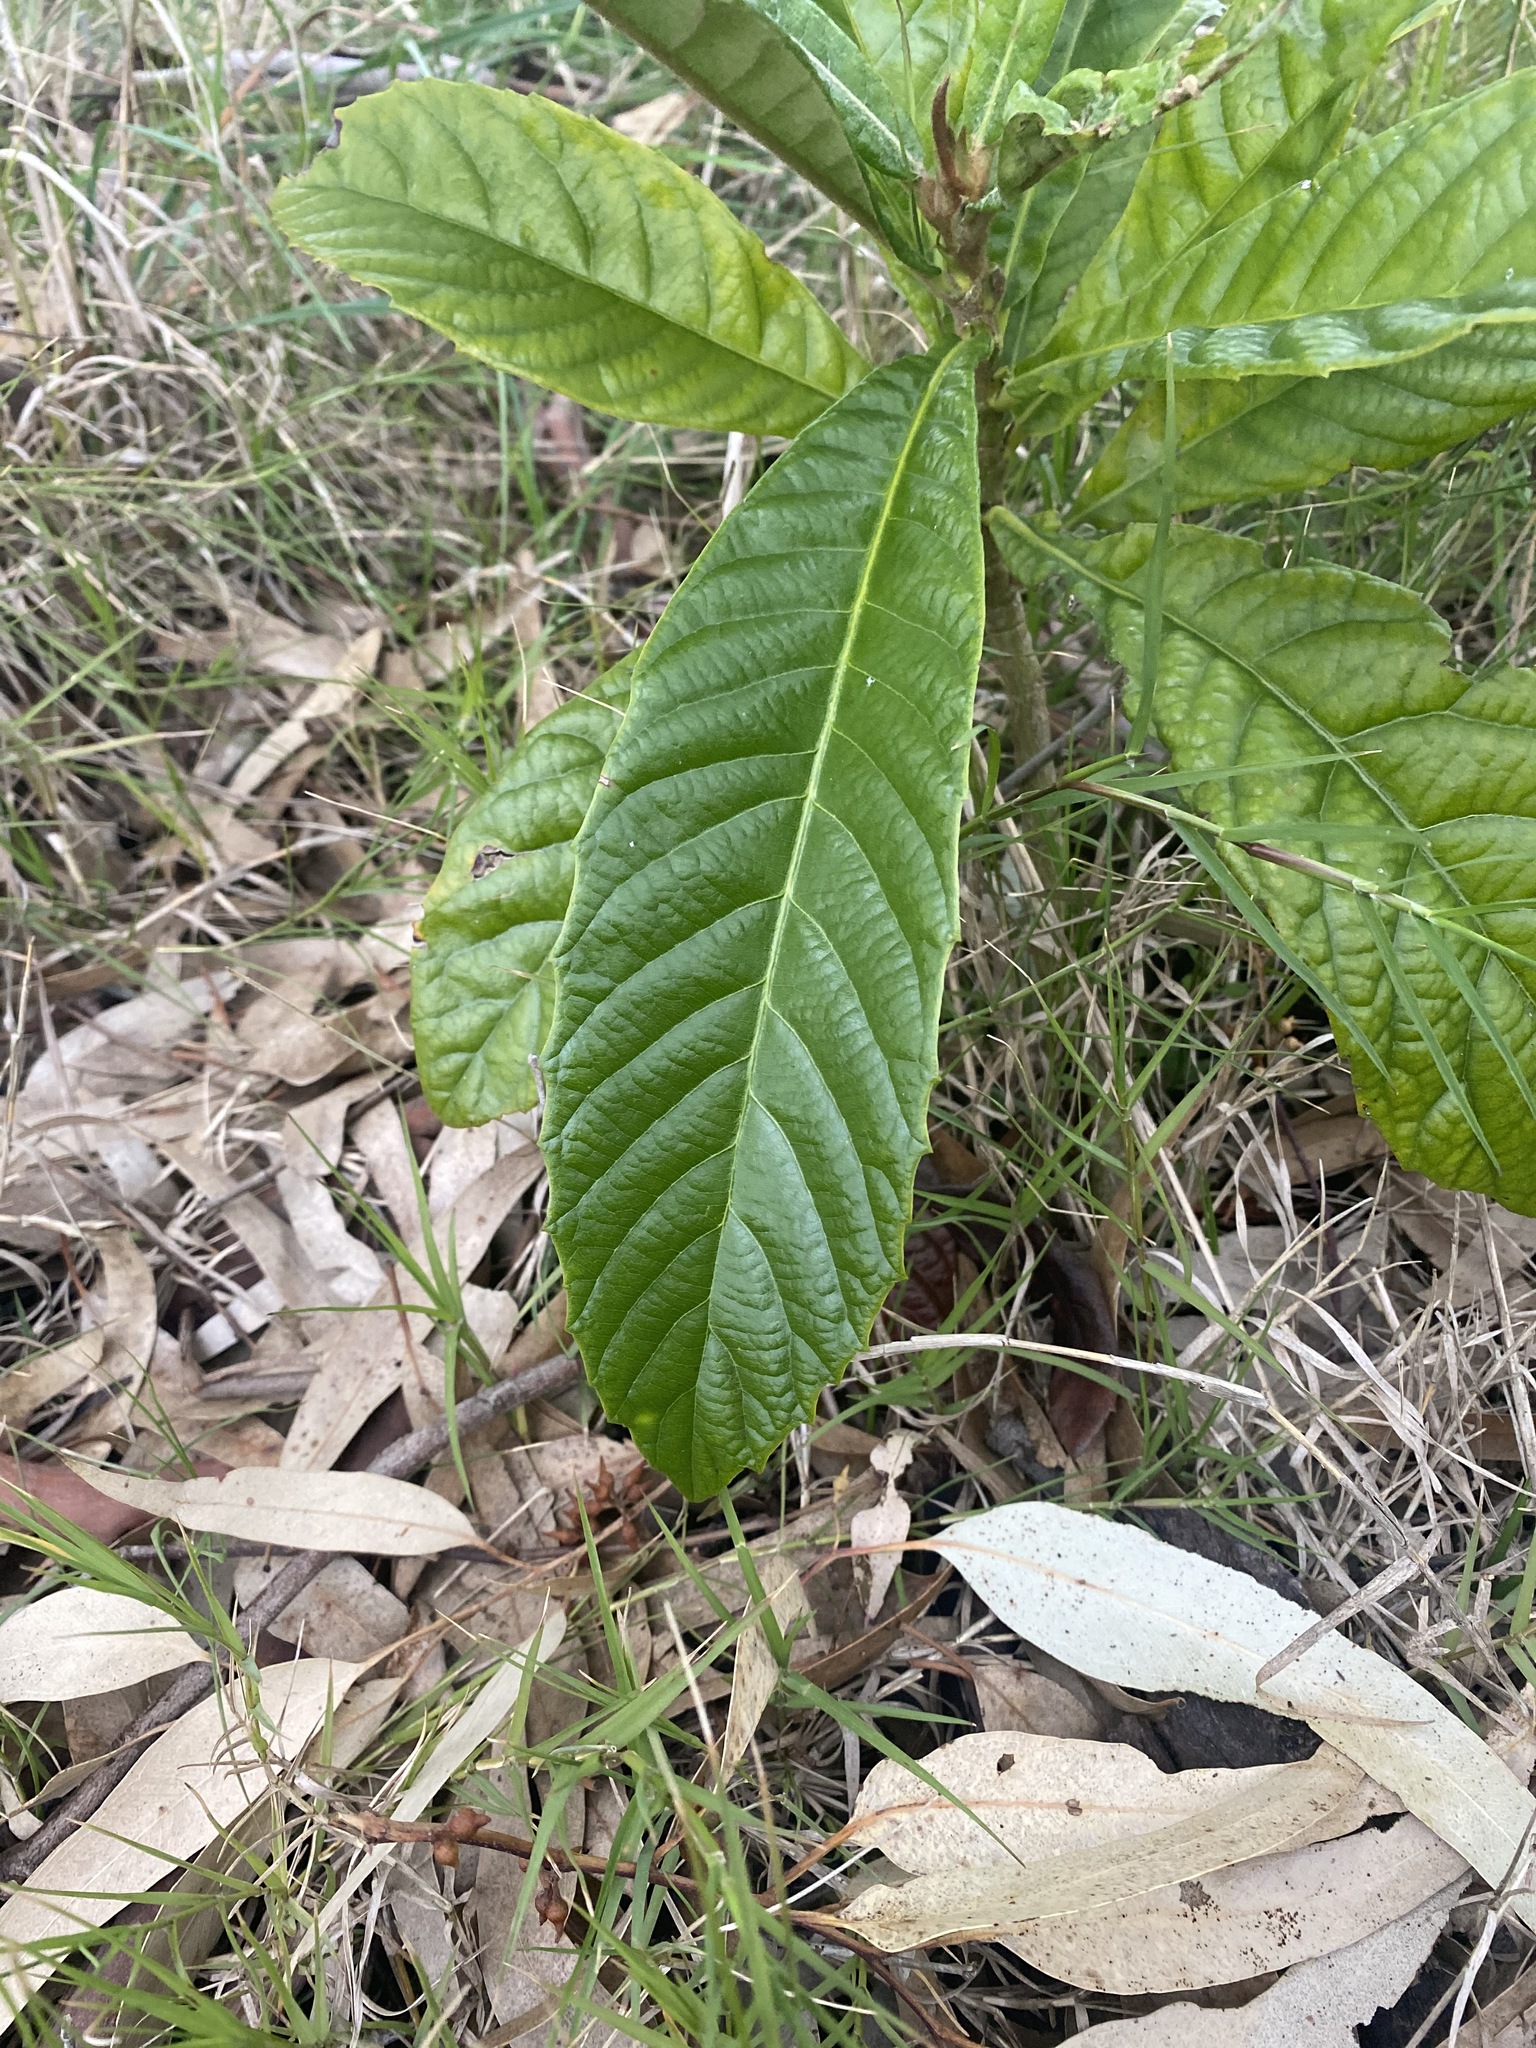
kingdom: Plantae
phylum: Tracheophyta
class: Magnoliopsida
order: Rosales
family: Rosaceae
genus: Rhaphiolepis
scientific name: Rhaphiolepis bibas
